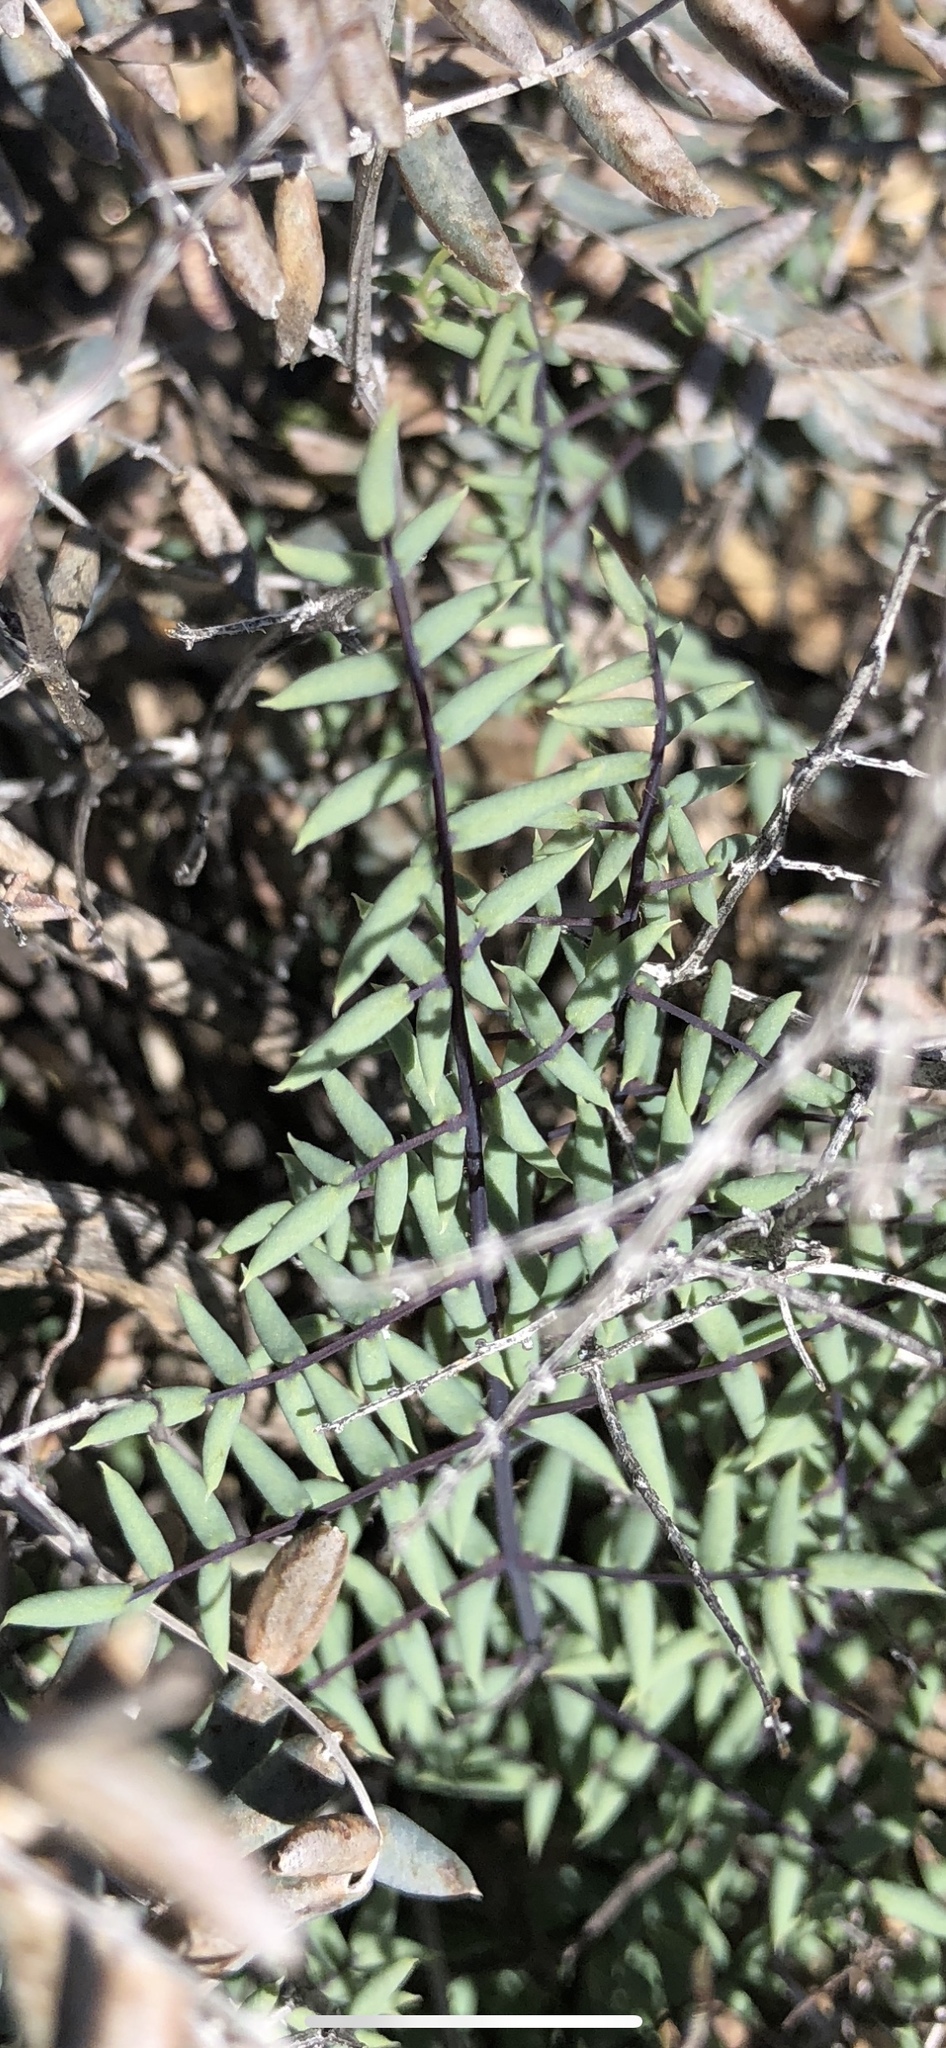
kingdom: Plantae
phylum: Tracheophyta
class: Polypodiopsida
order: Polypodiales
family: Pteridaceae
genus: Pellaea
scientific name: Pellaea truncata
